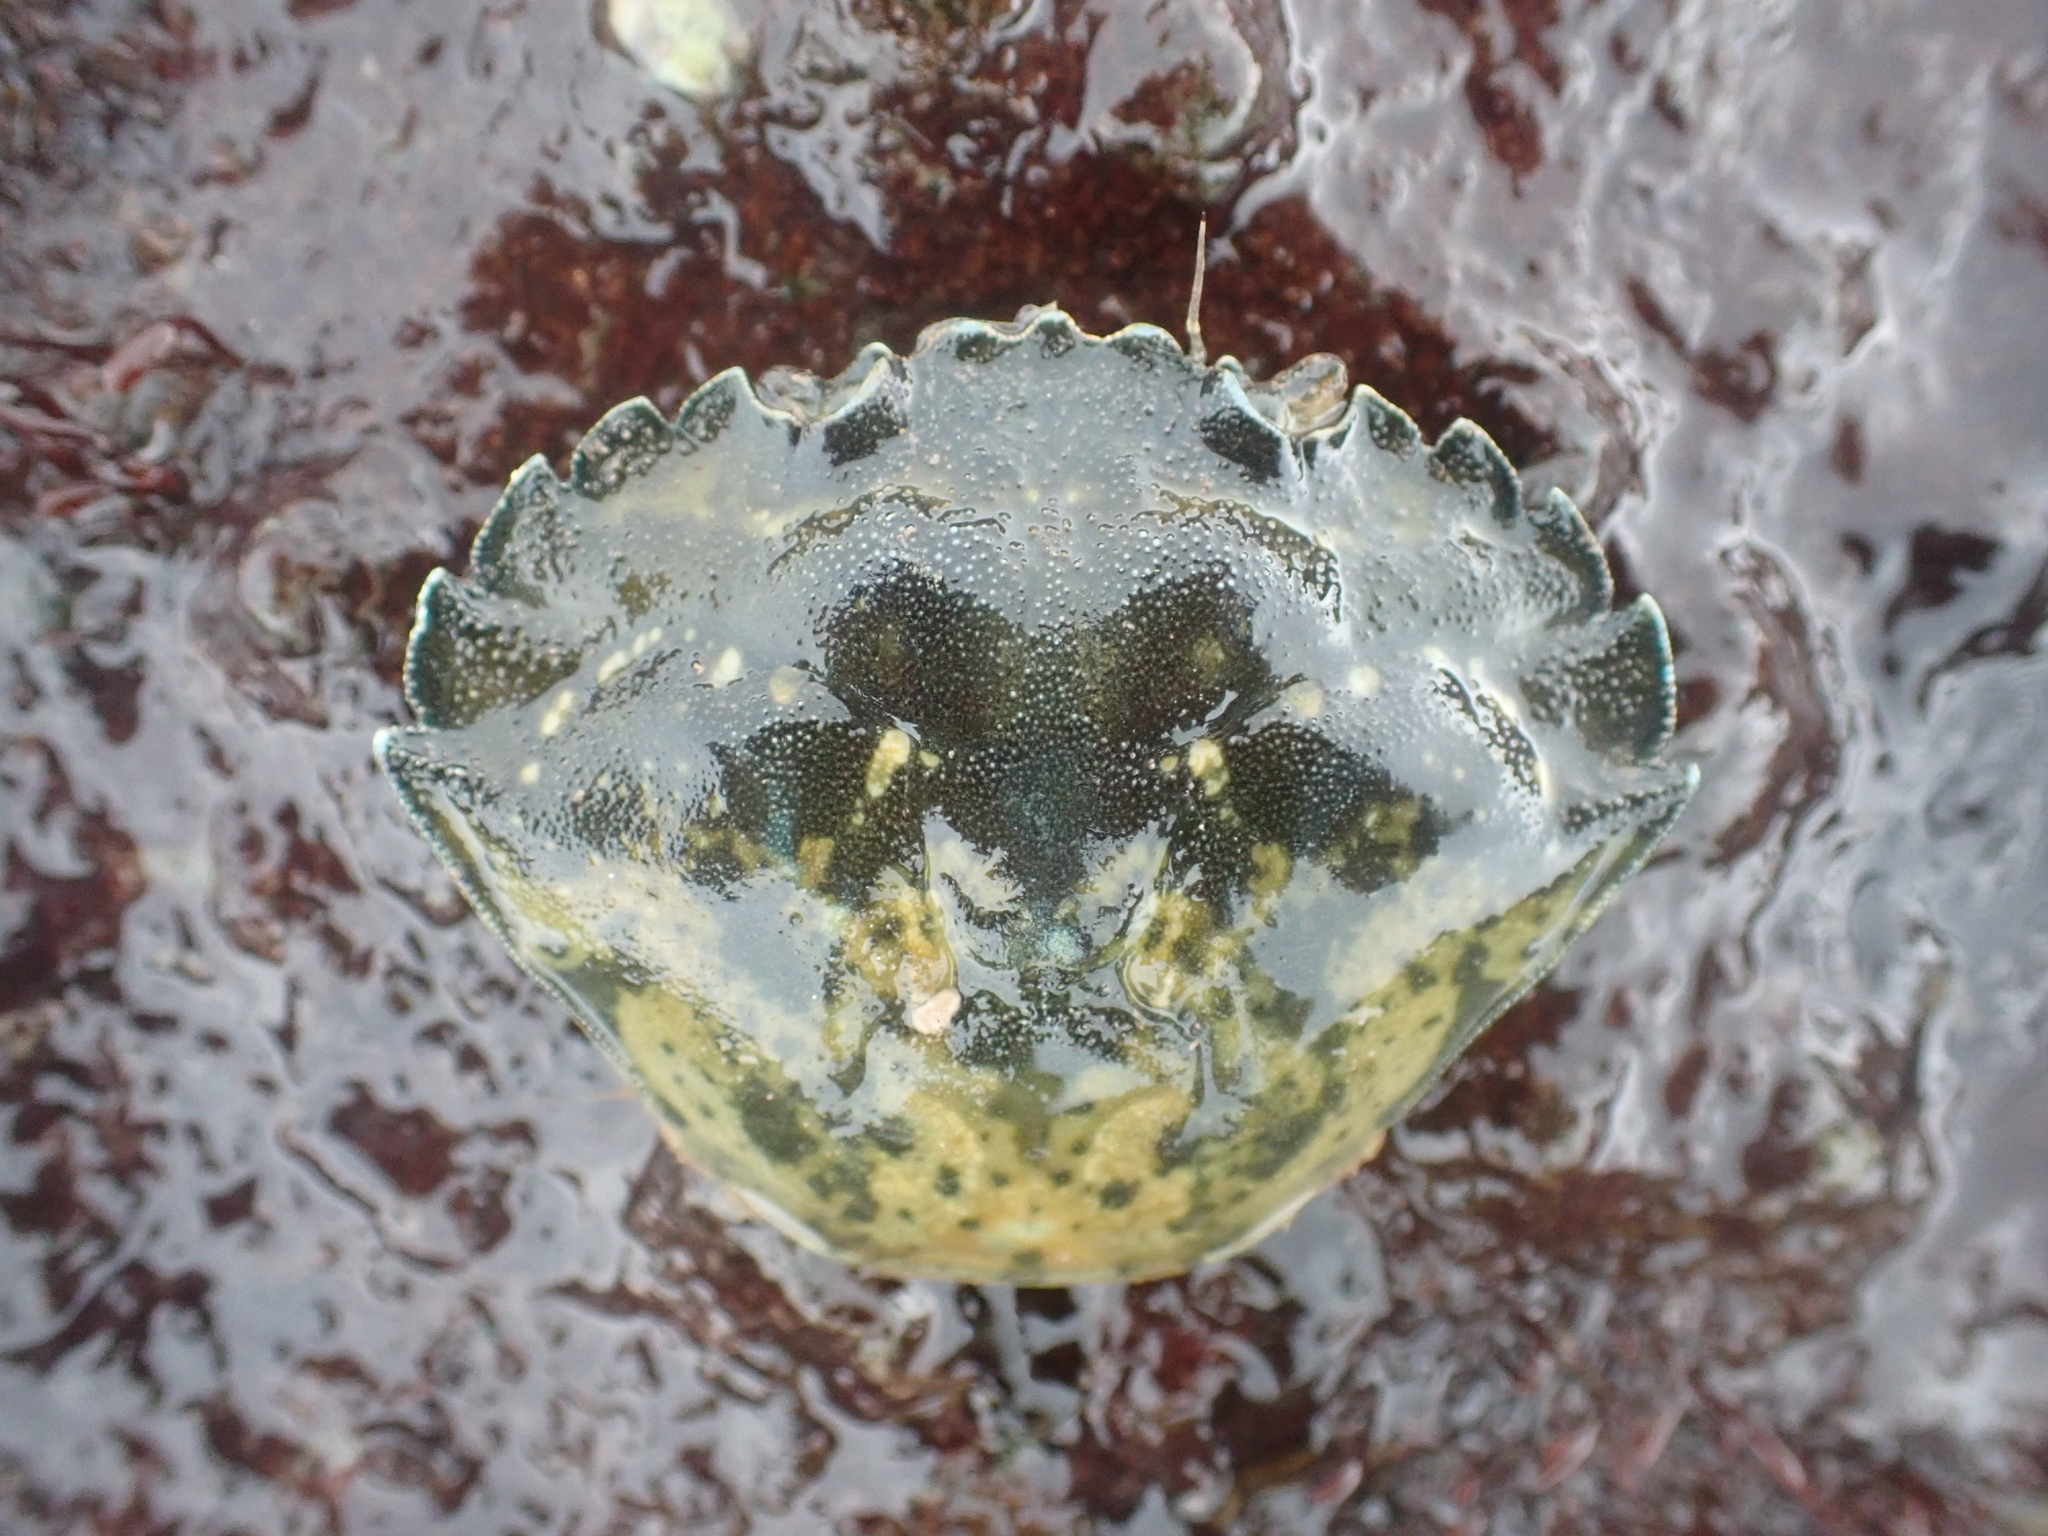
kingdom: Animalia
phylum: Arthropoda
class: Malacostraca
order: Decapoda
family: Carcinidae
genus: Carcinus
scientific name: Carcinus maenas
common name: European green crab
